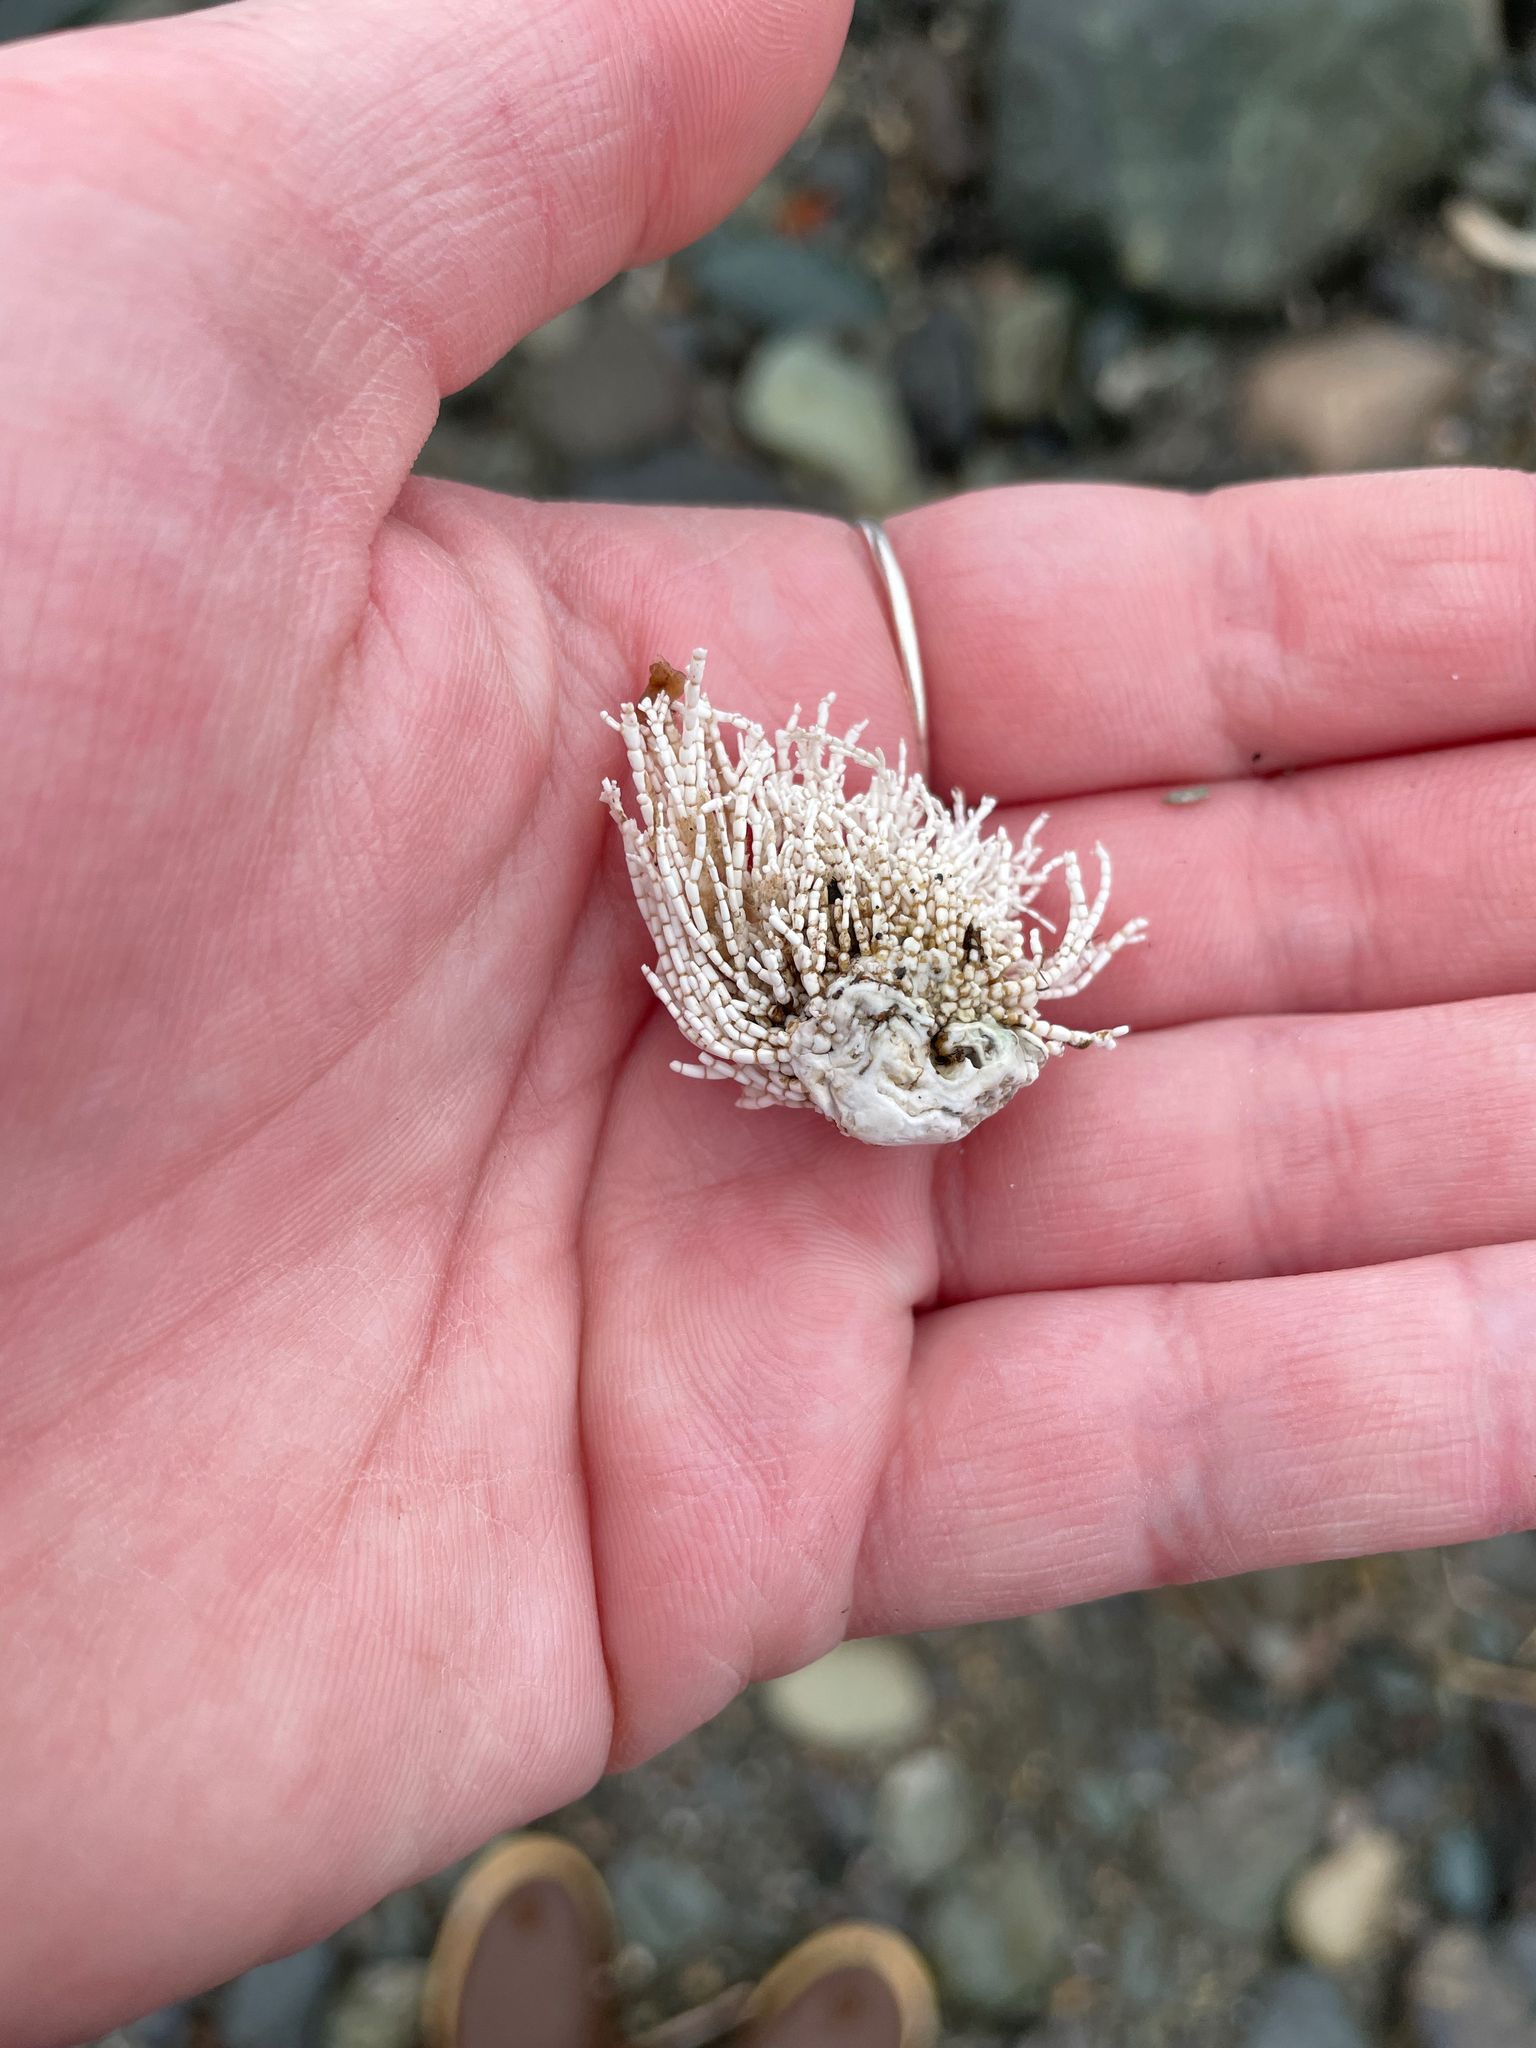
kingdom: Plantae
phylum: Rhodophyta
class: Florideophyceae
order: Corallinales
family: Corallinaceae
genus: Corallina
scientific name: Corallina officinalis
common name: Coral weed
